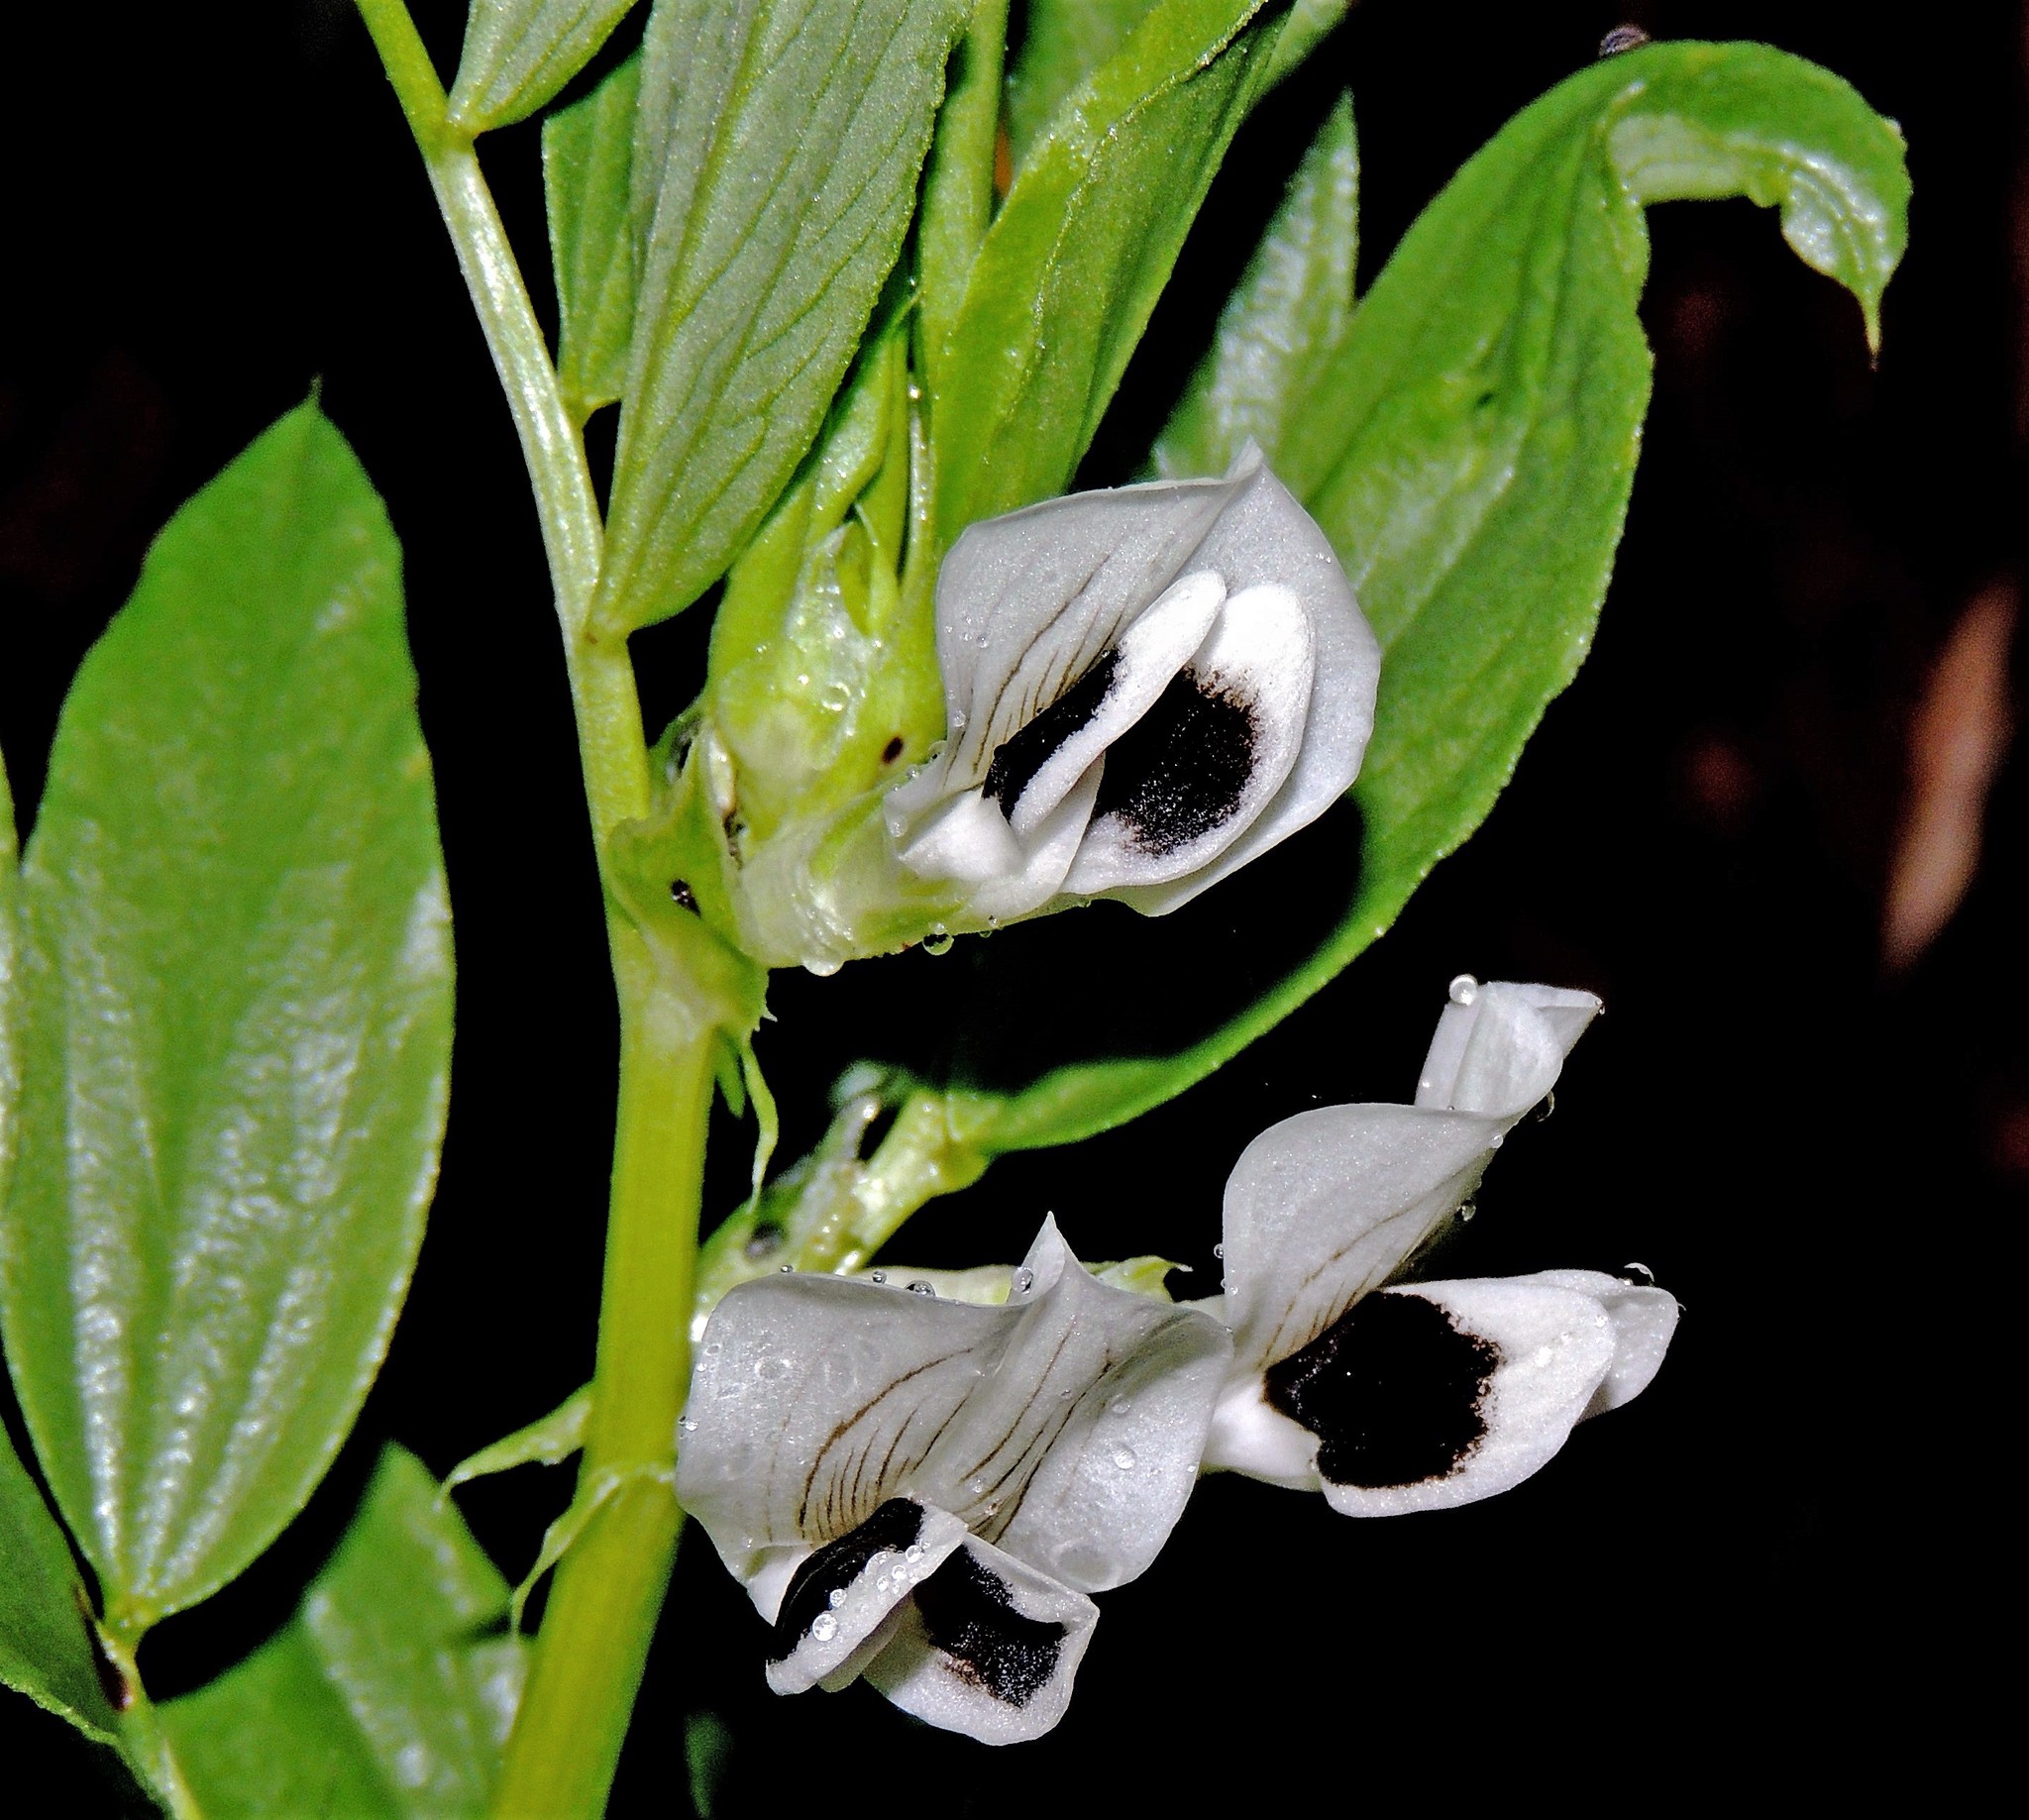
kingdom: Plantae
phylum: Tracheophyta
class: Magnoliopsida
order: Fabales
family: Fabaceae
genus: Vicia
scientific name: Vicia faba
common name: Broad bean
